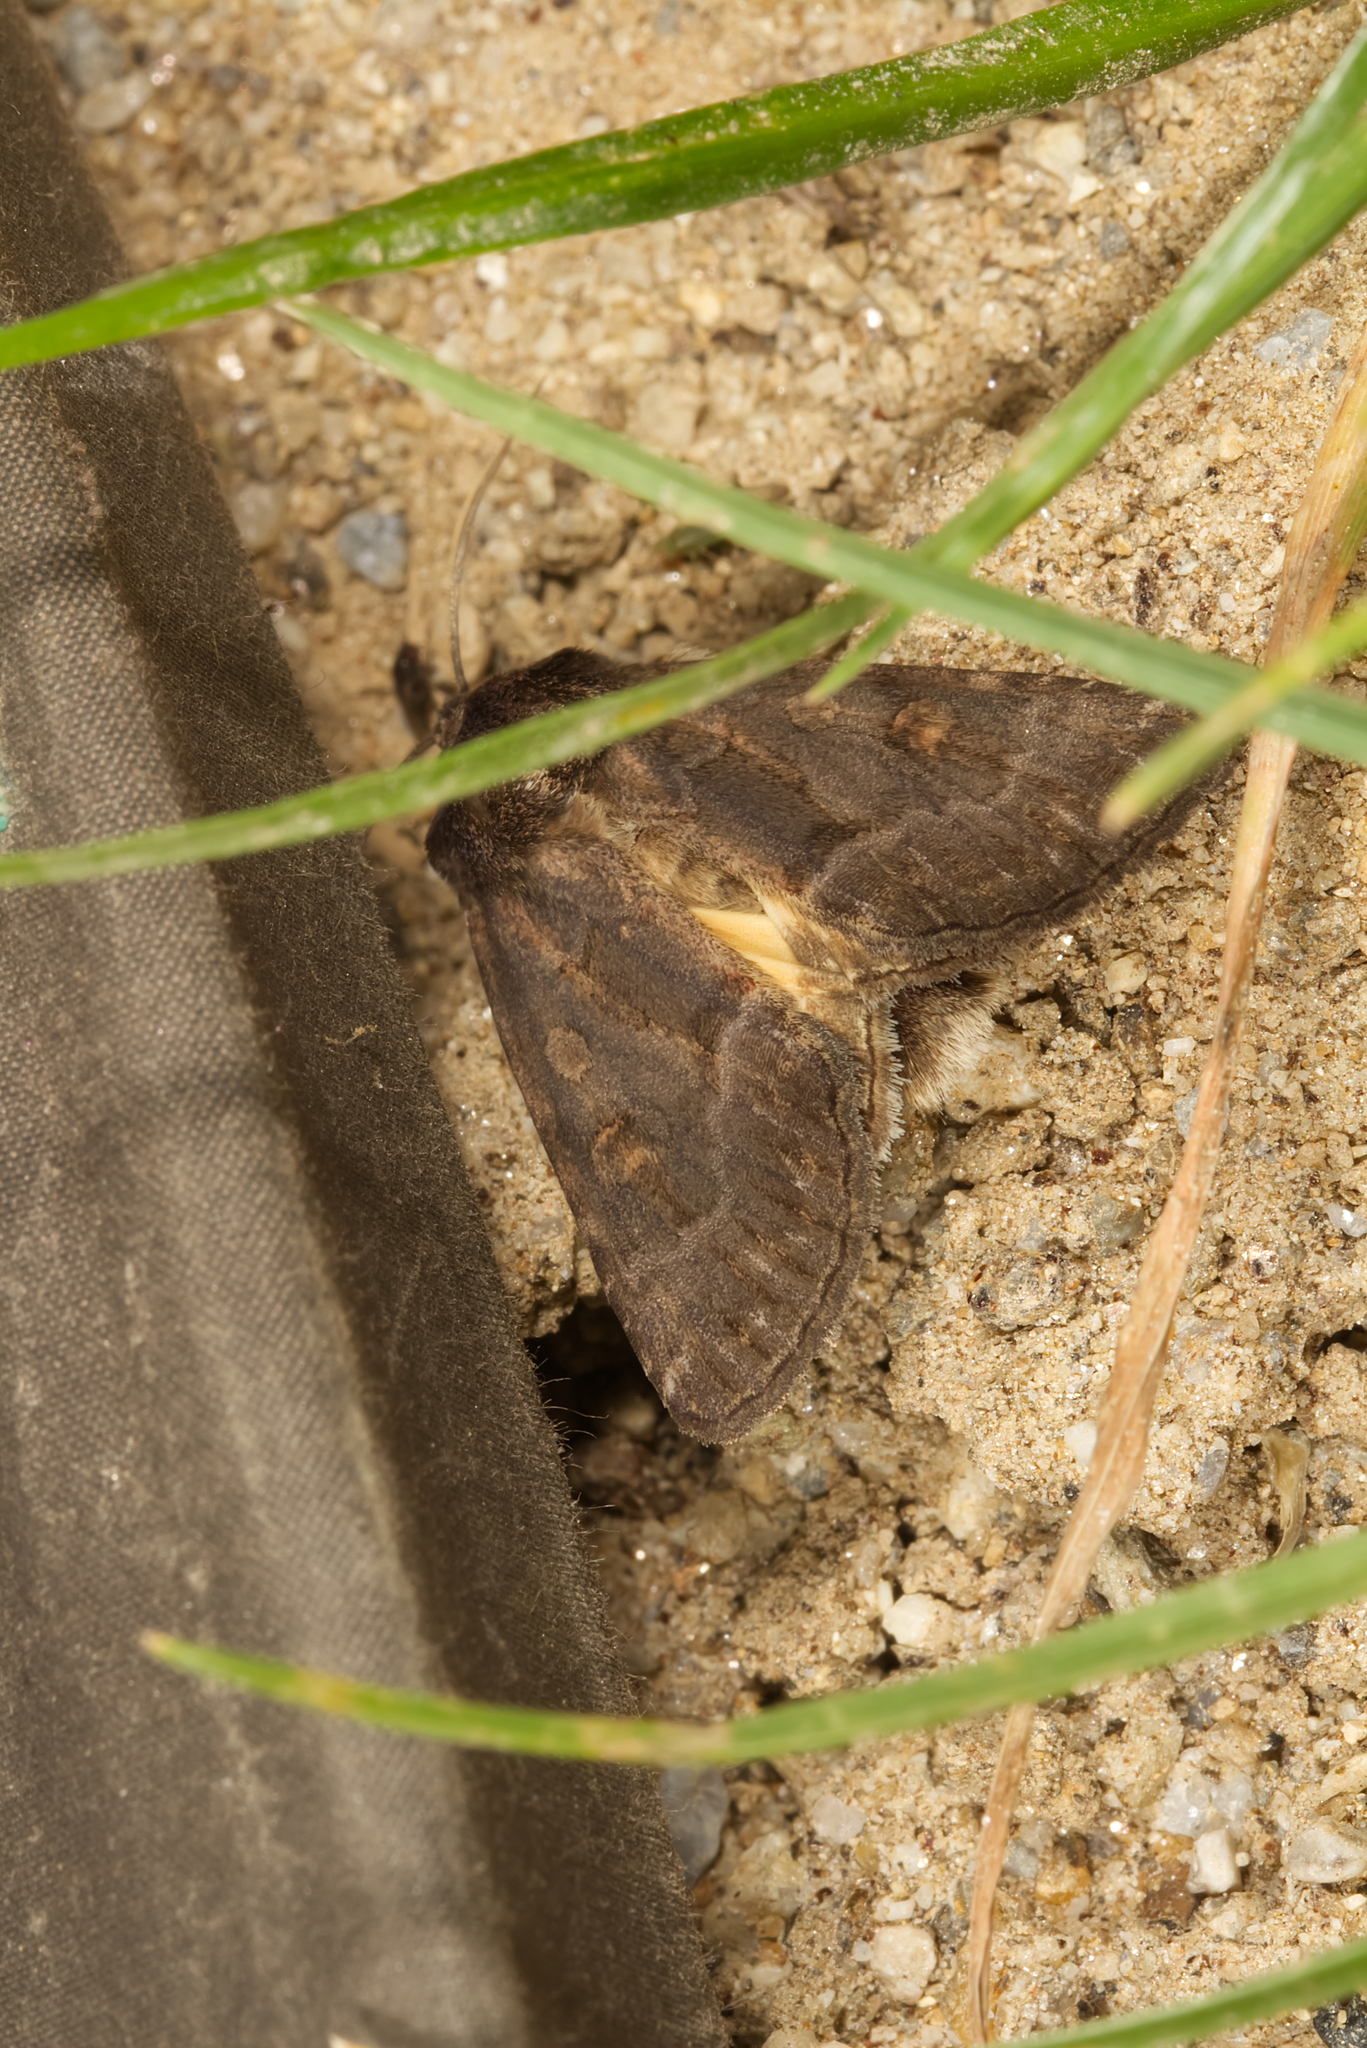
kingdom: Animalia
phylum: Arthropoda
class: Insecta
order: Lepidoptera
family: Noctuidae
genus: Thalpophila
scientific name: Thalpophila matura
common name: Straw underwing
